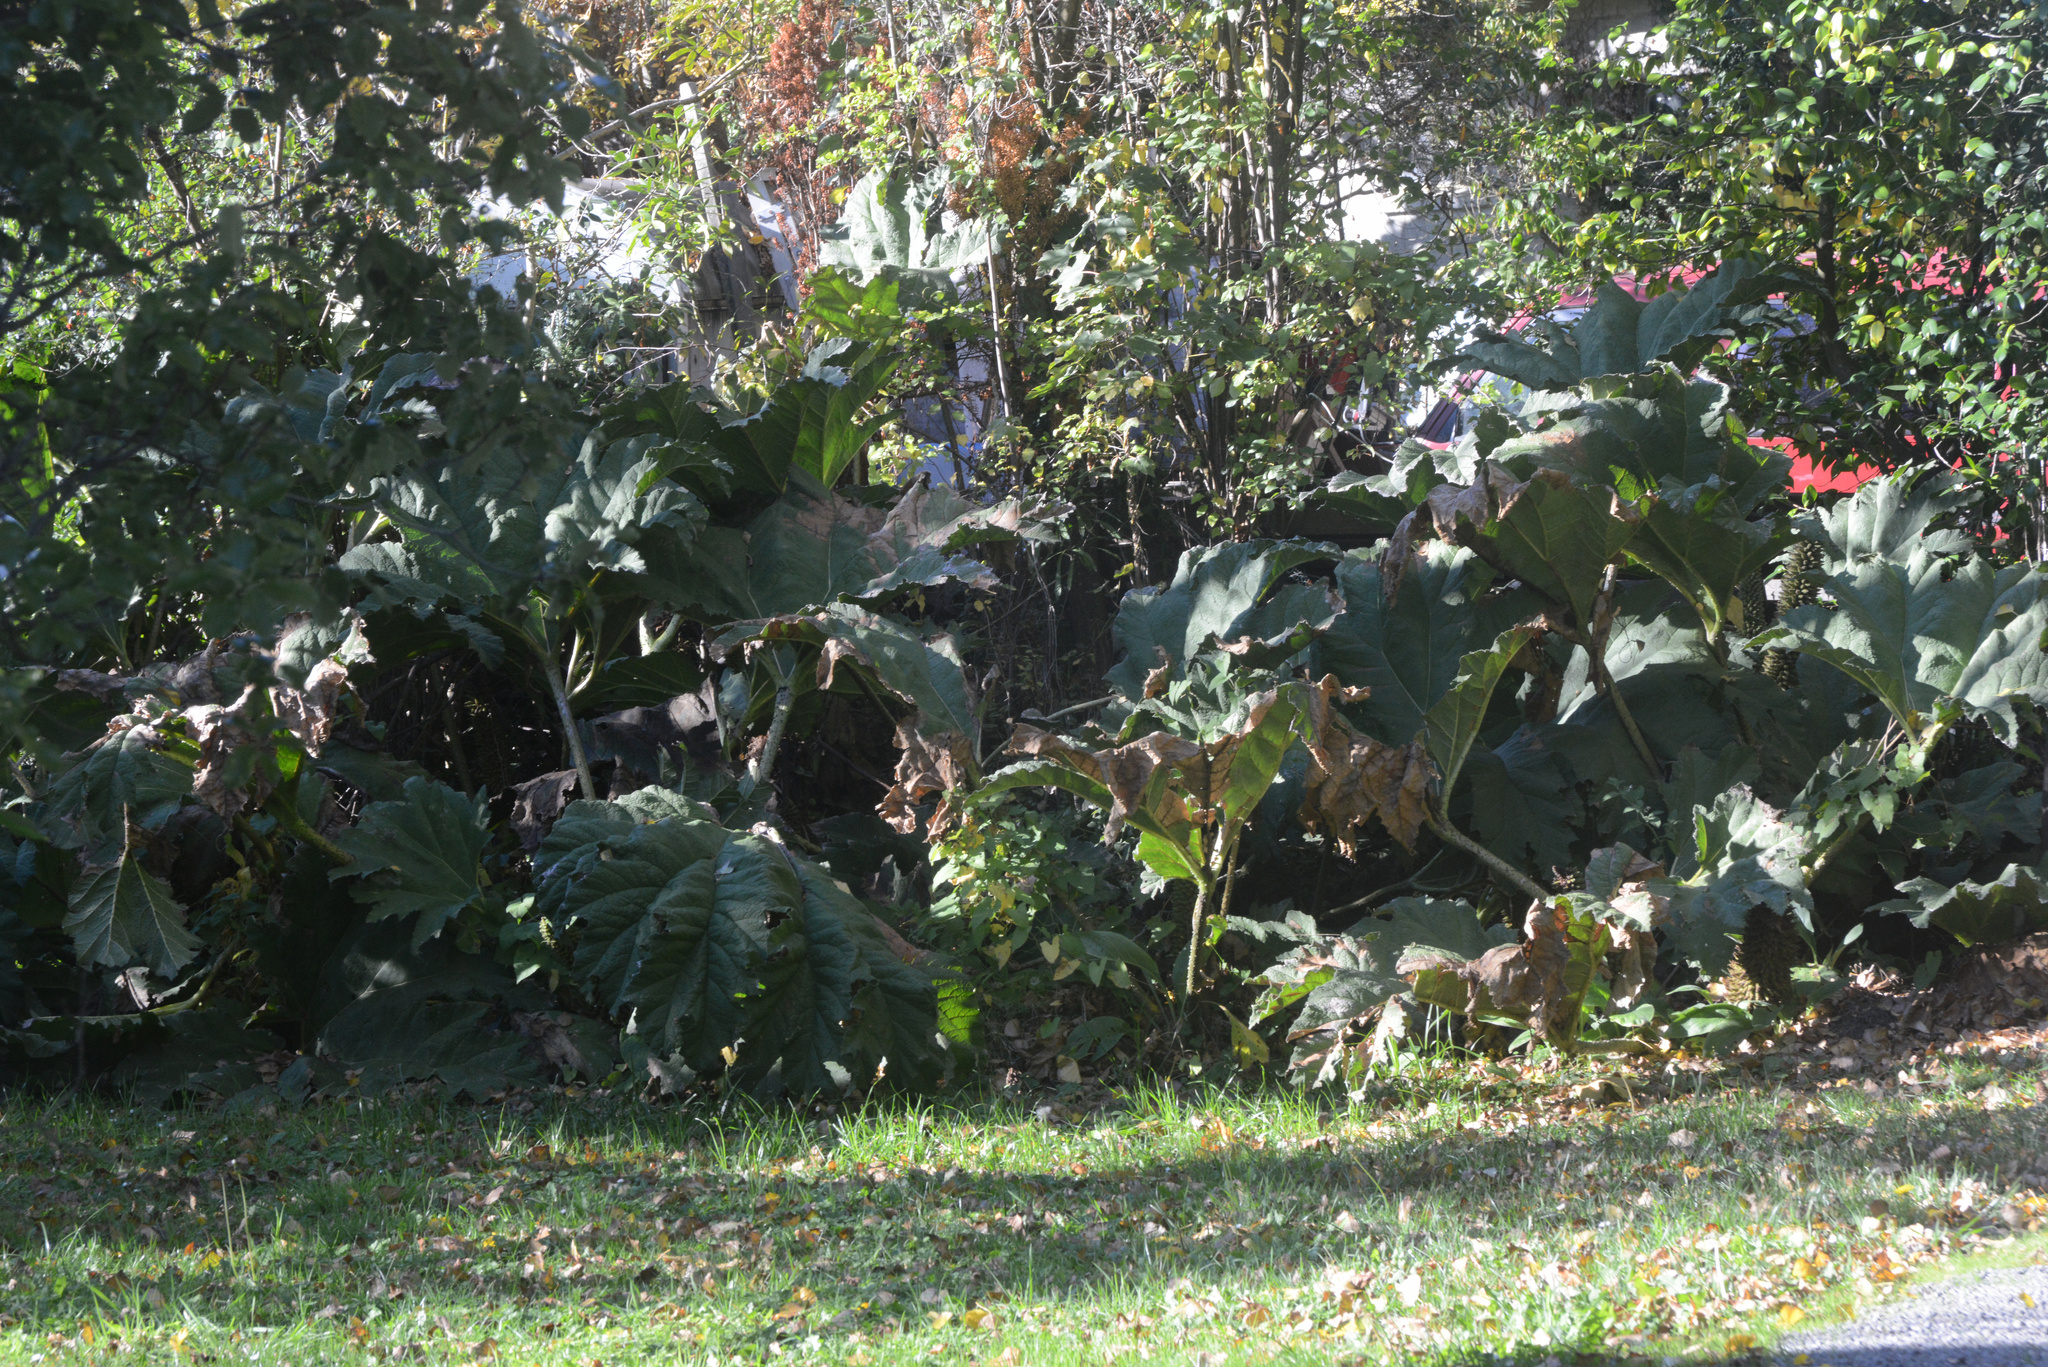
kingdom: Plantae
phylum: Tracheophyta
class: Magnoliopsida
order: Gunnerales
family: Gunneraceae
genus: Gunnera
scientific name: Gunnera tinctoria
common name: Giant-rhubarb
